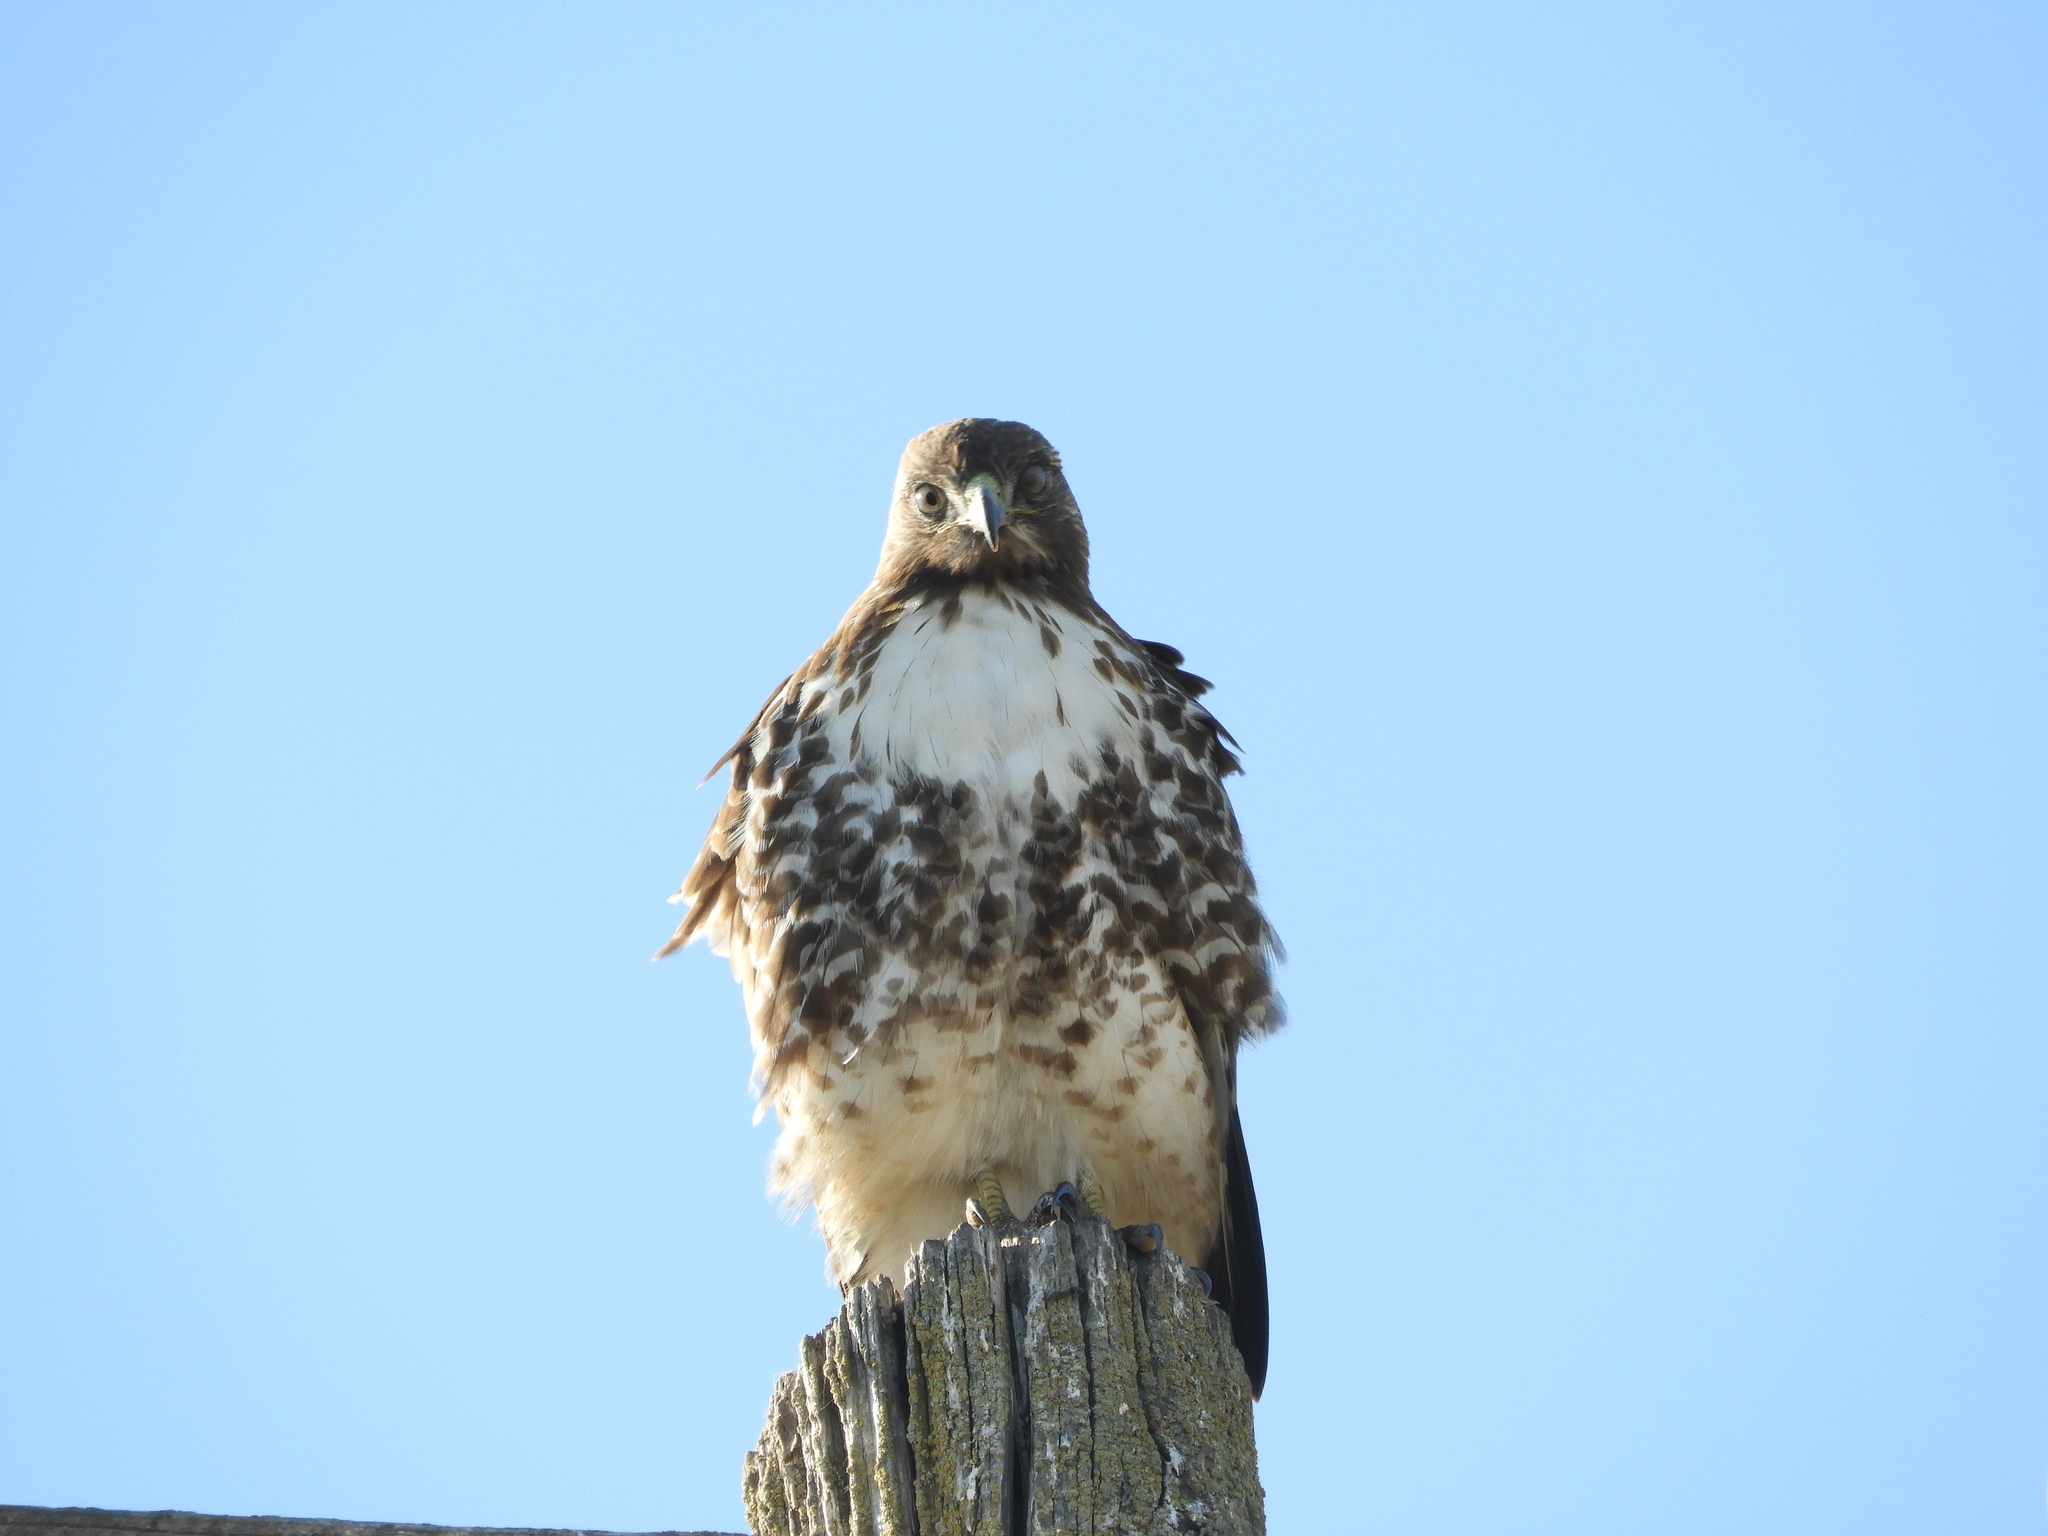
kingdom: Animalia
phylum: Chordata
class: Aves
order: Accipitriformes
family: Accipitridae
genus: Buteo
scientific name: Buteo jamaicensis
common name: Red-tailed hawk
